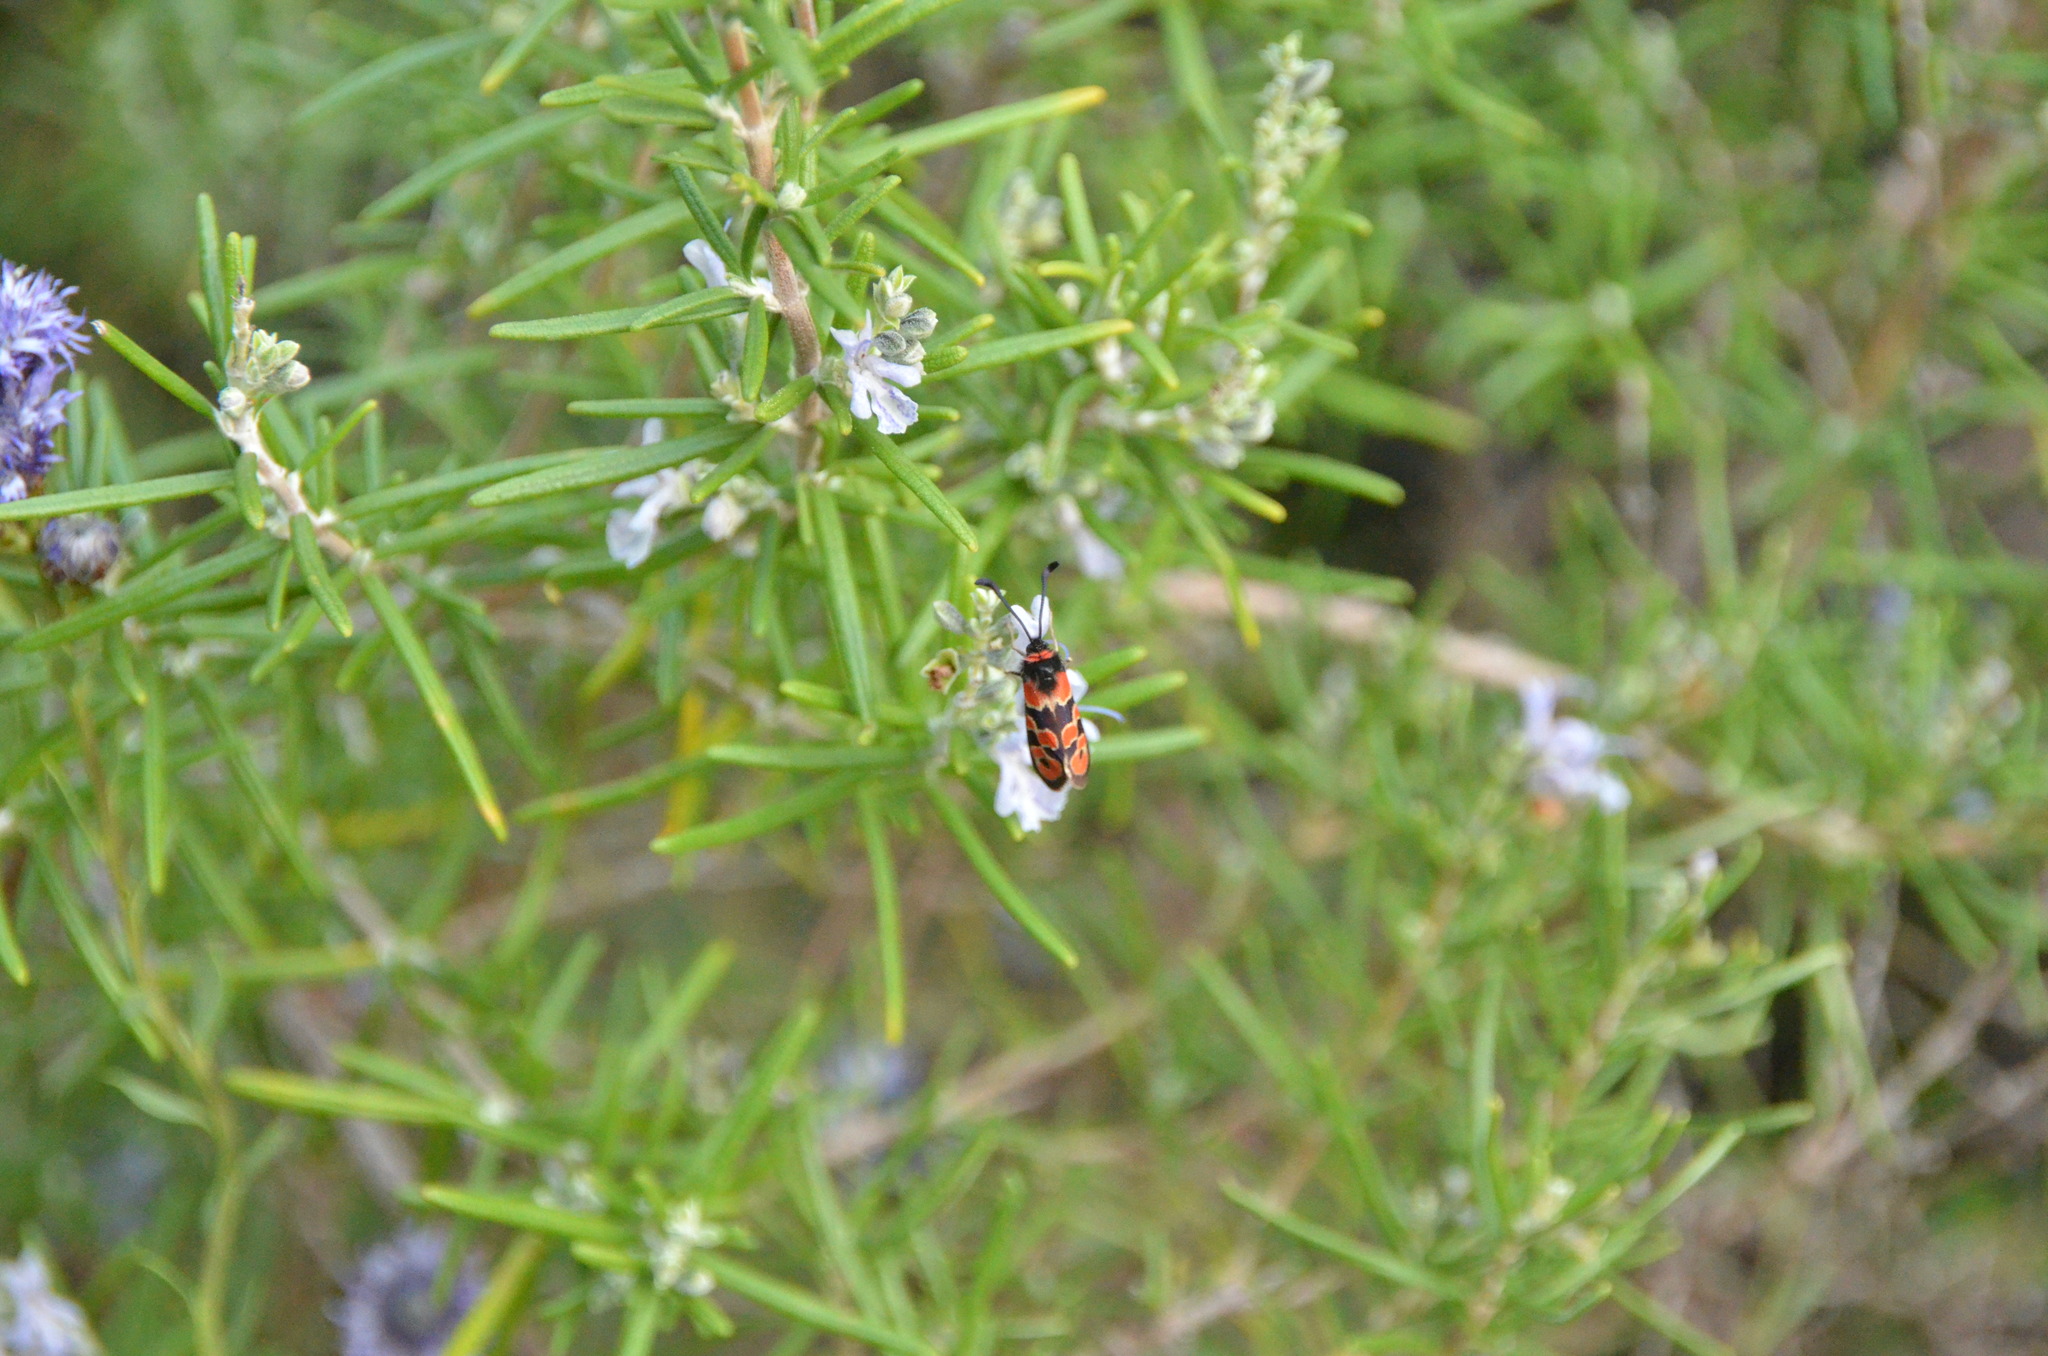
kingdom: Animalia
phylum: Arthropoda
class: Insecta
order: Lepidoptera
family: Zygaenidae
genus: Zygaena
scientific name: Zygaena fausta
